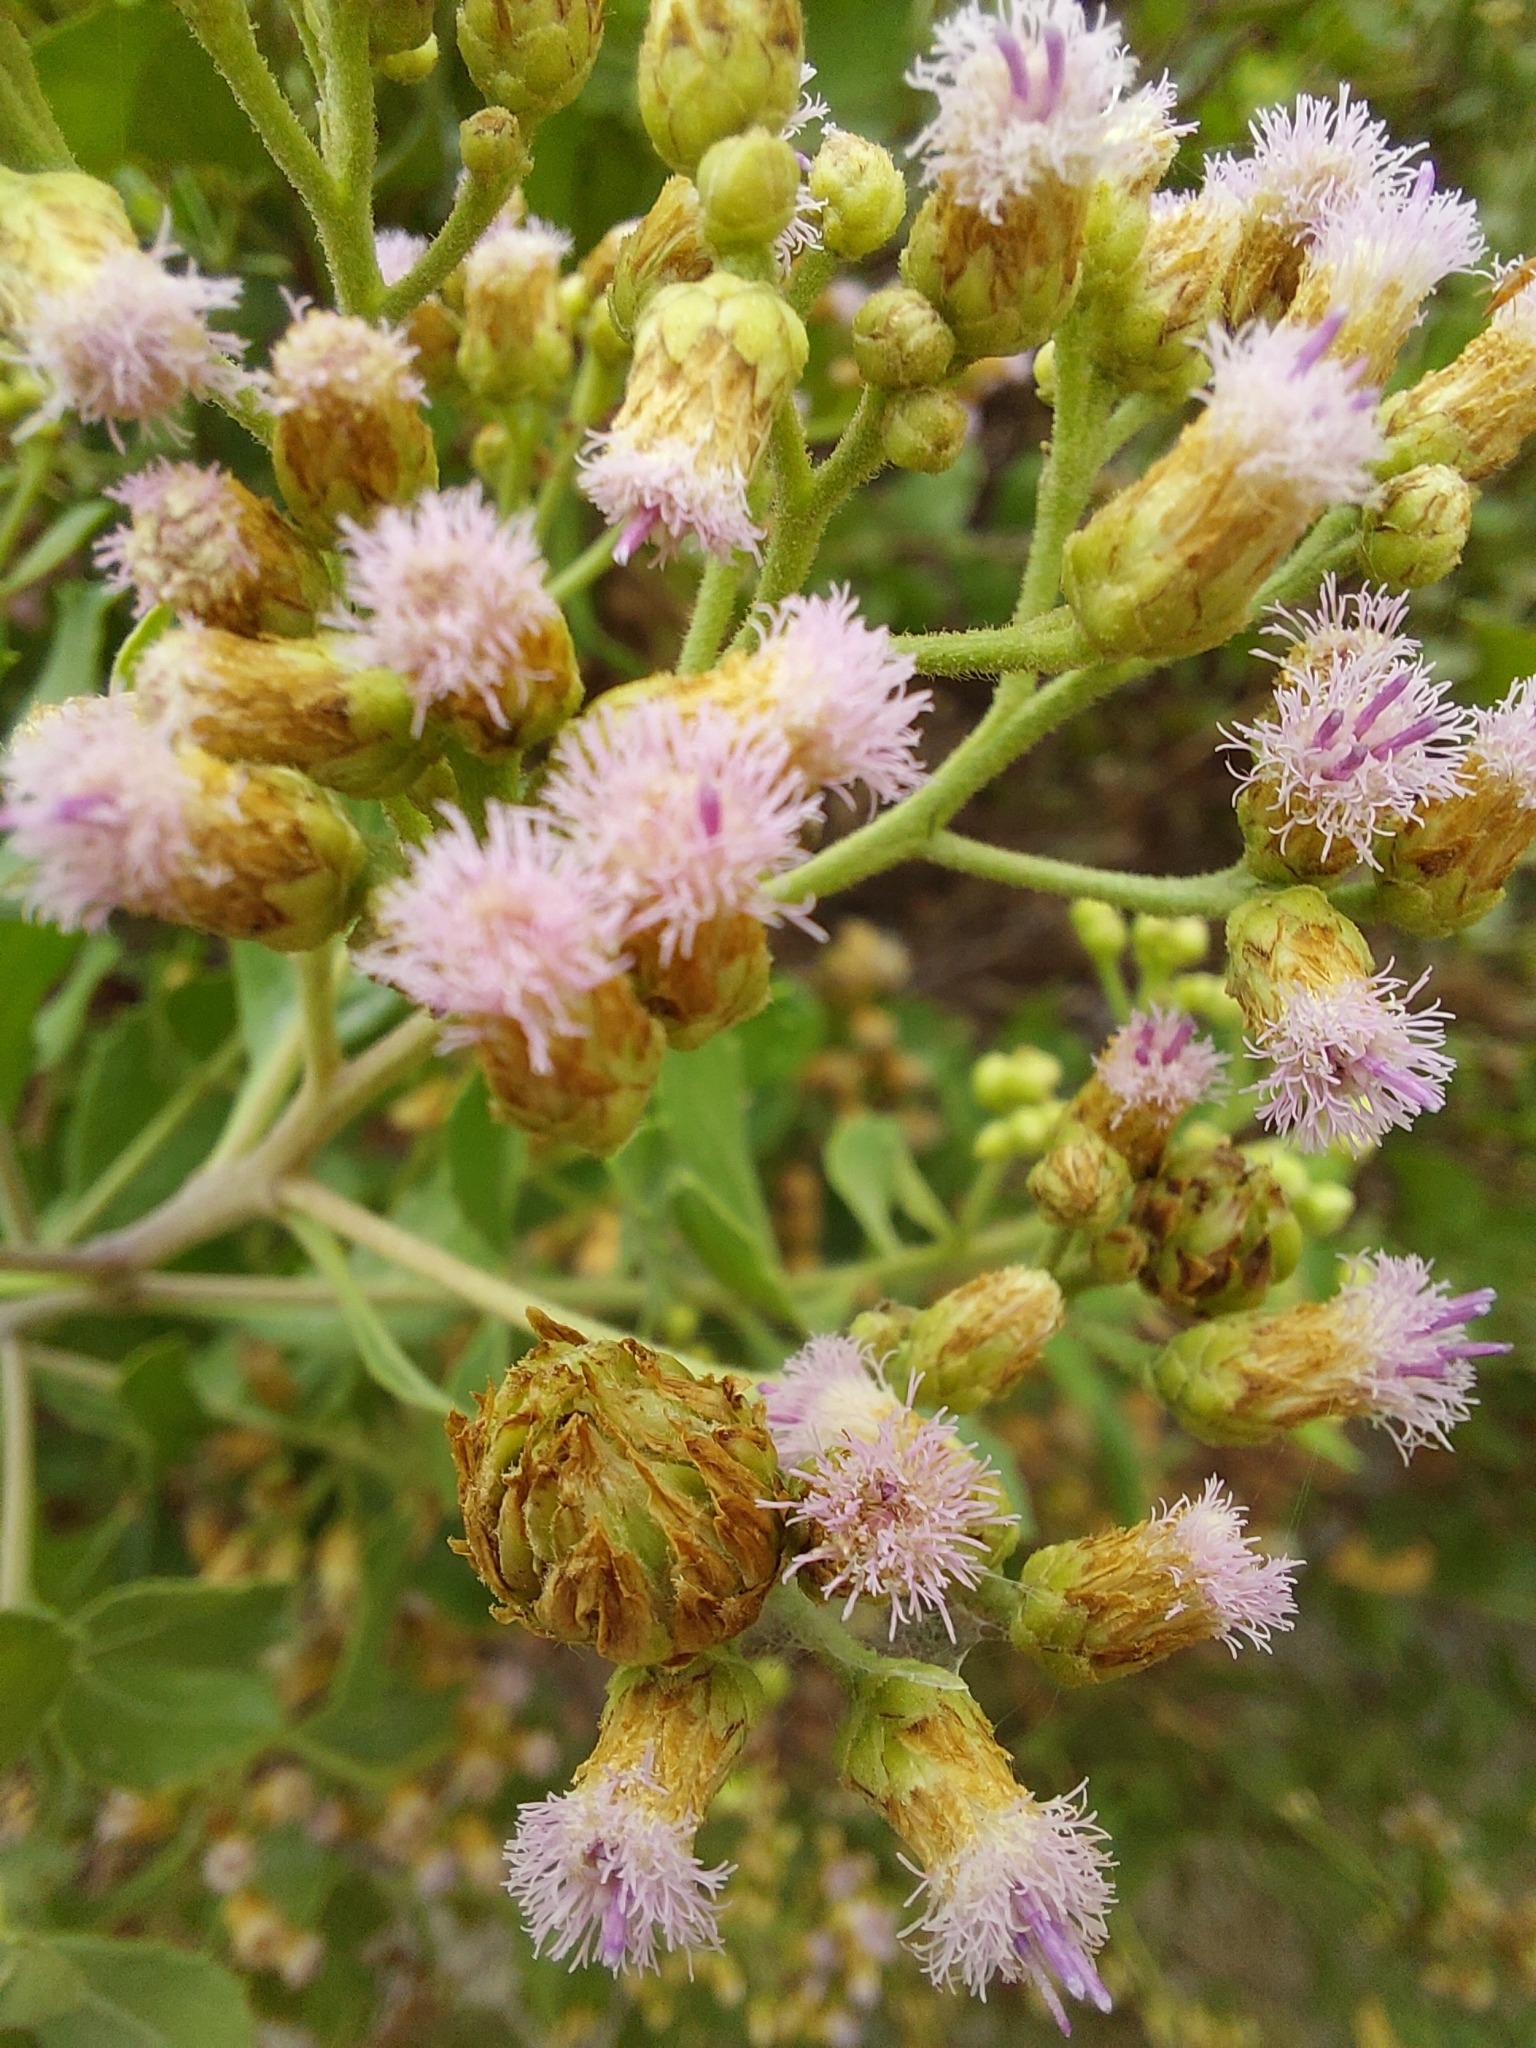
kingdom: Plantae
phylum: Tracheophyta
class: Magnoliopsida
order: Asterales
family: Asteraceae
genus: Pluchea
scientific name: Pluchea indica
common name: Indian fleabane
